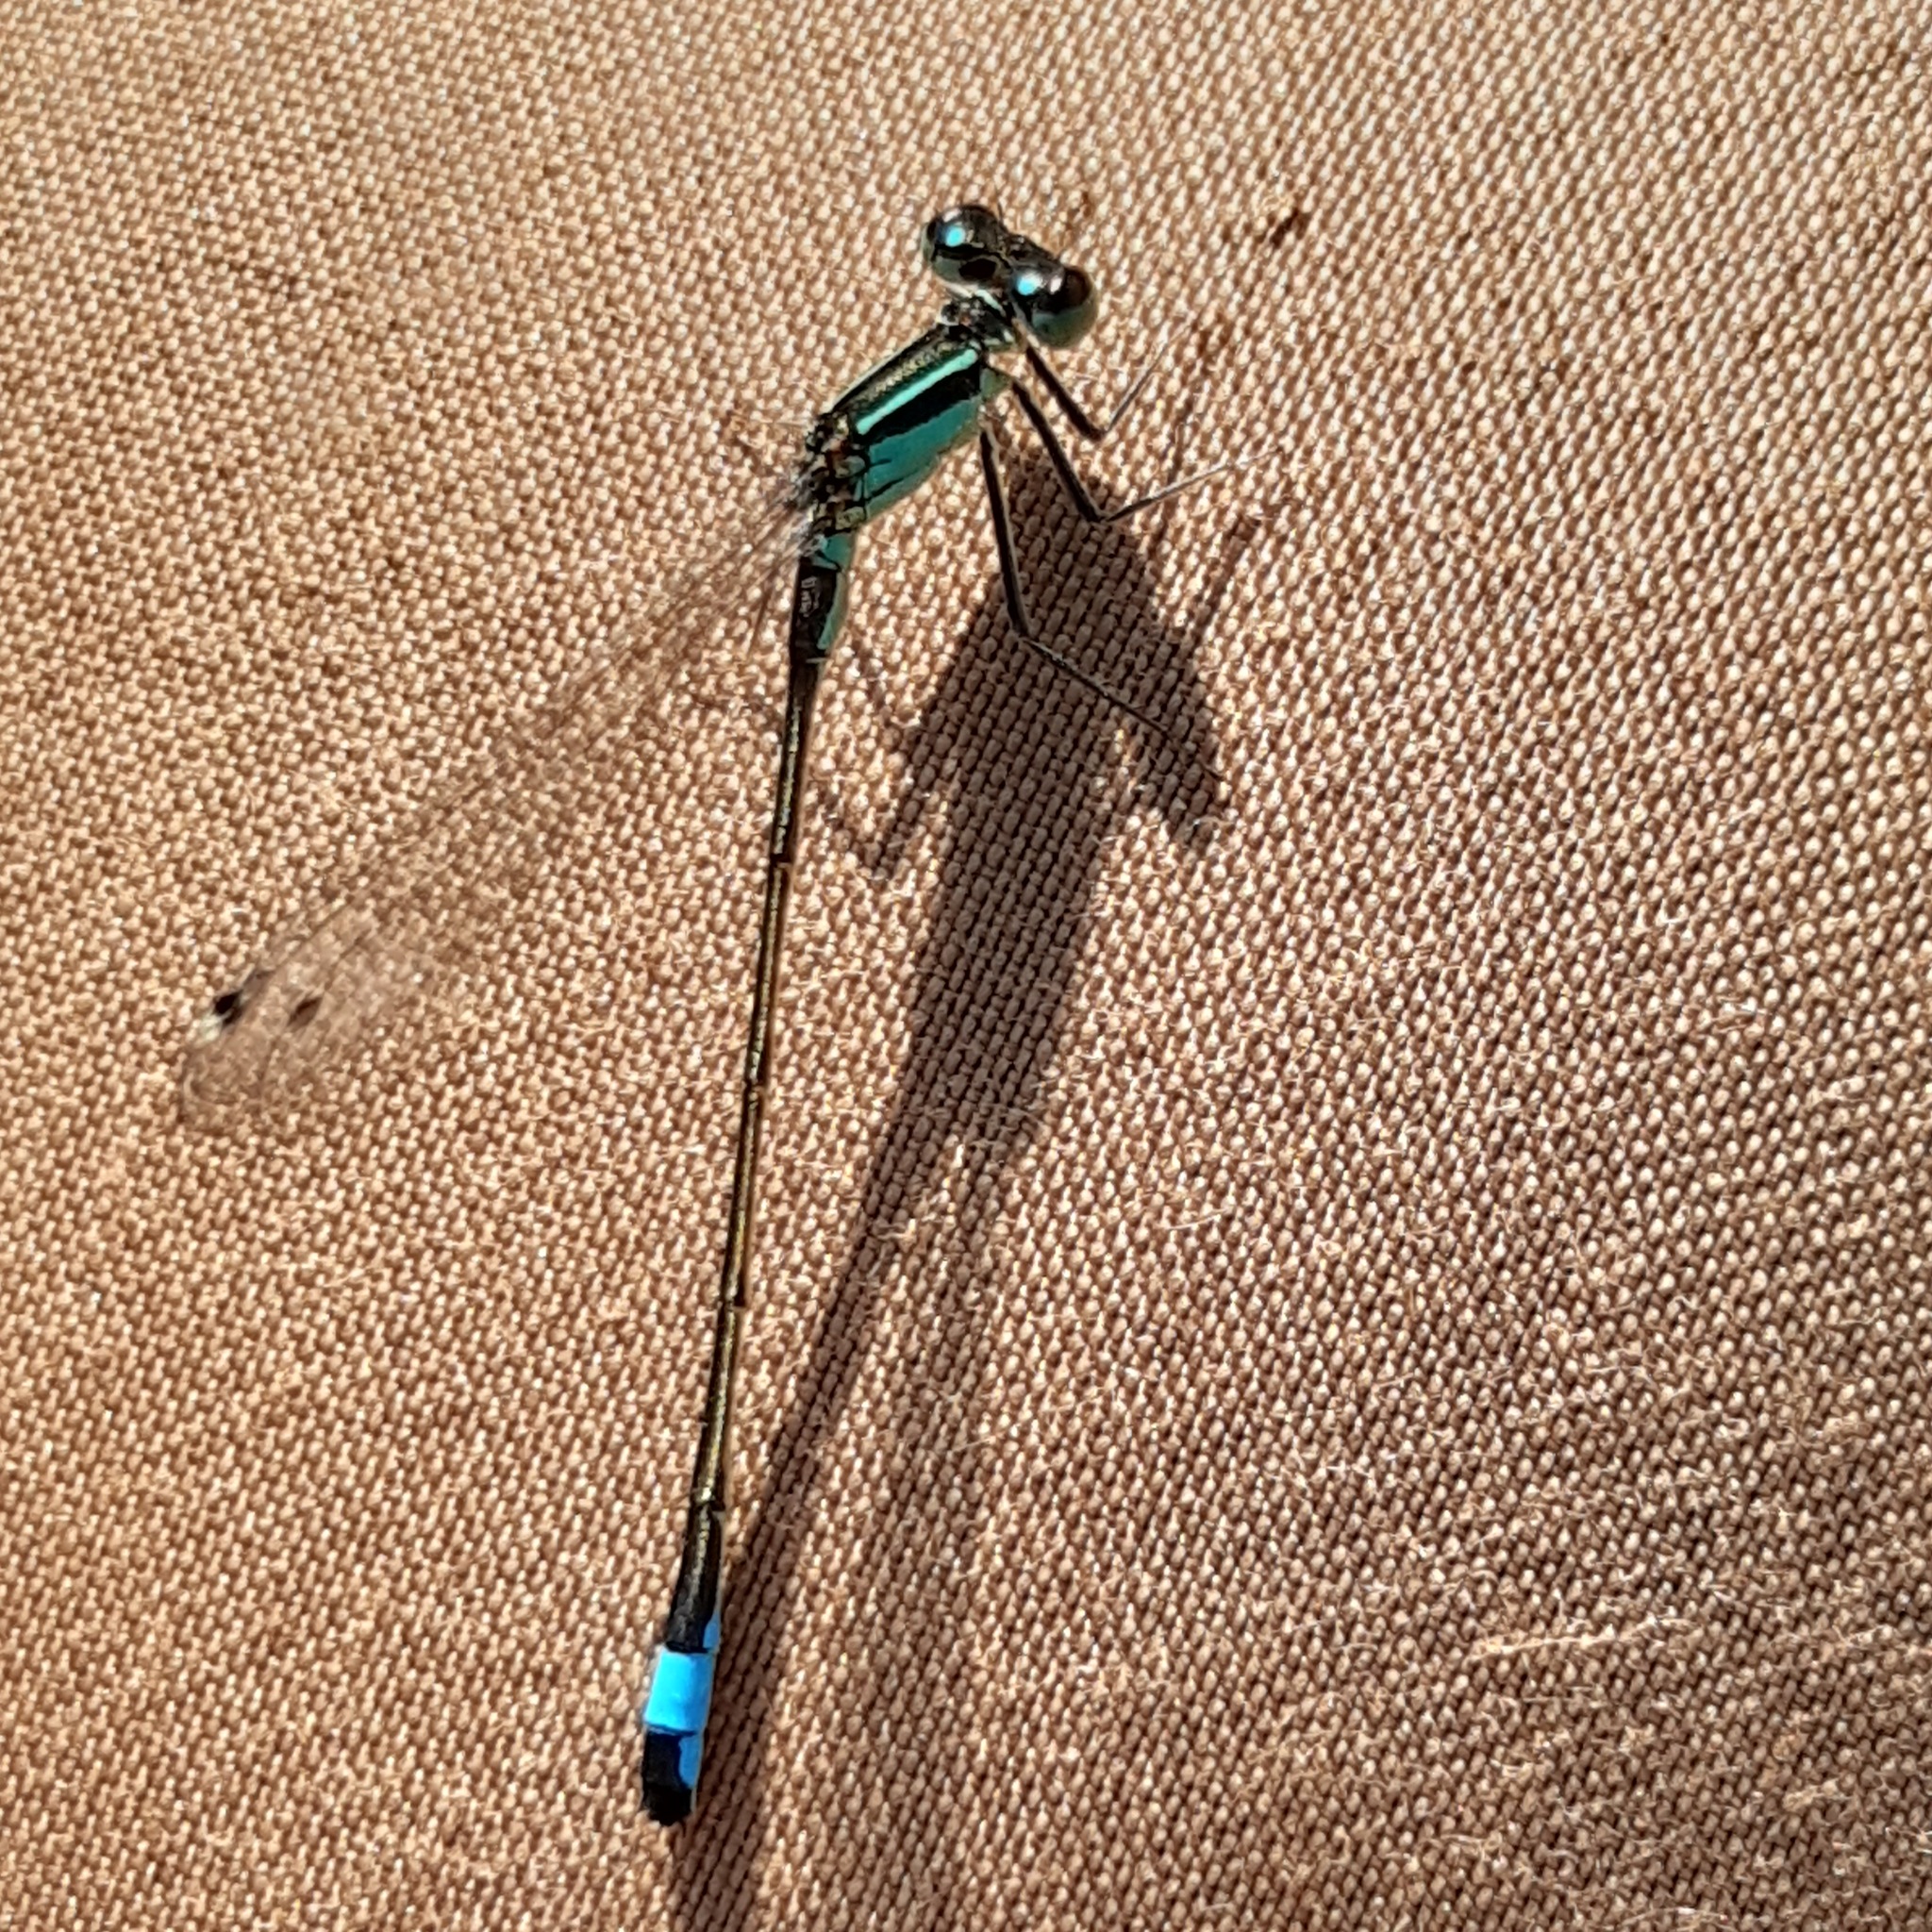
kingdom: Animalia
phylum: Arthropoda
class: Insecta
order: Odonata
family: Coenagrionidae
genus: Ischnura
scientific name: Ischnura elegans
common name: Blue-tailed damselfly
